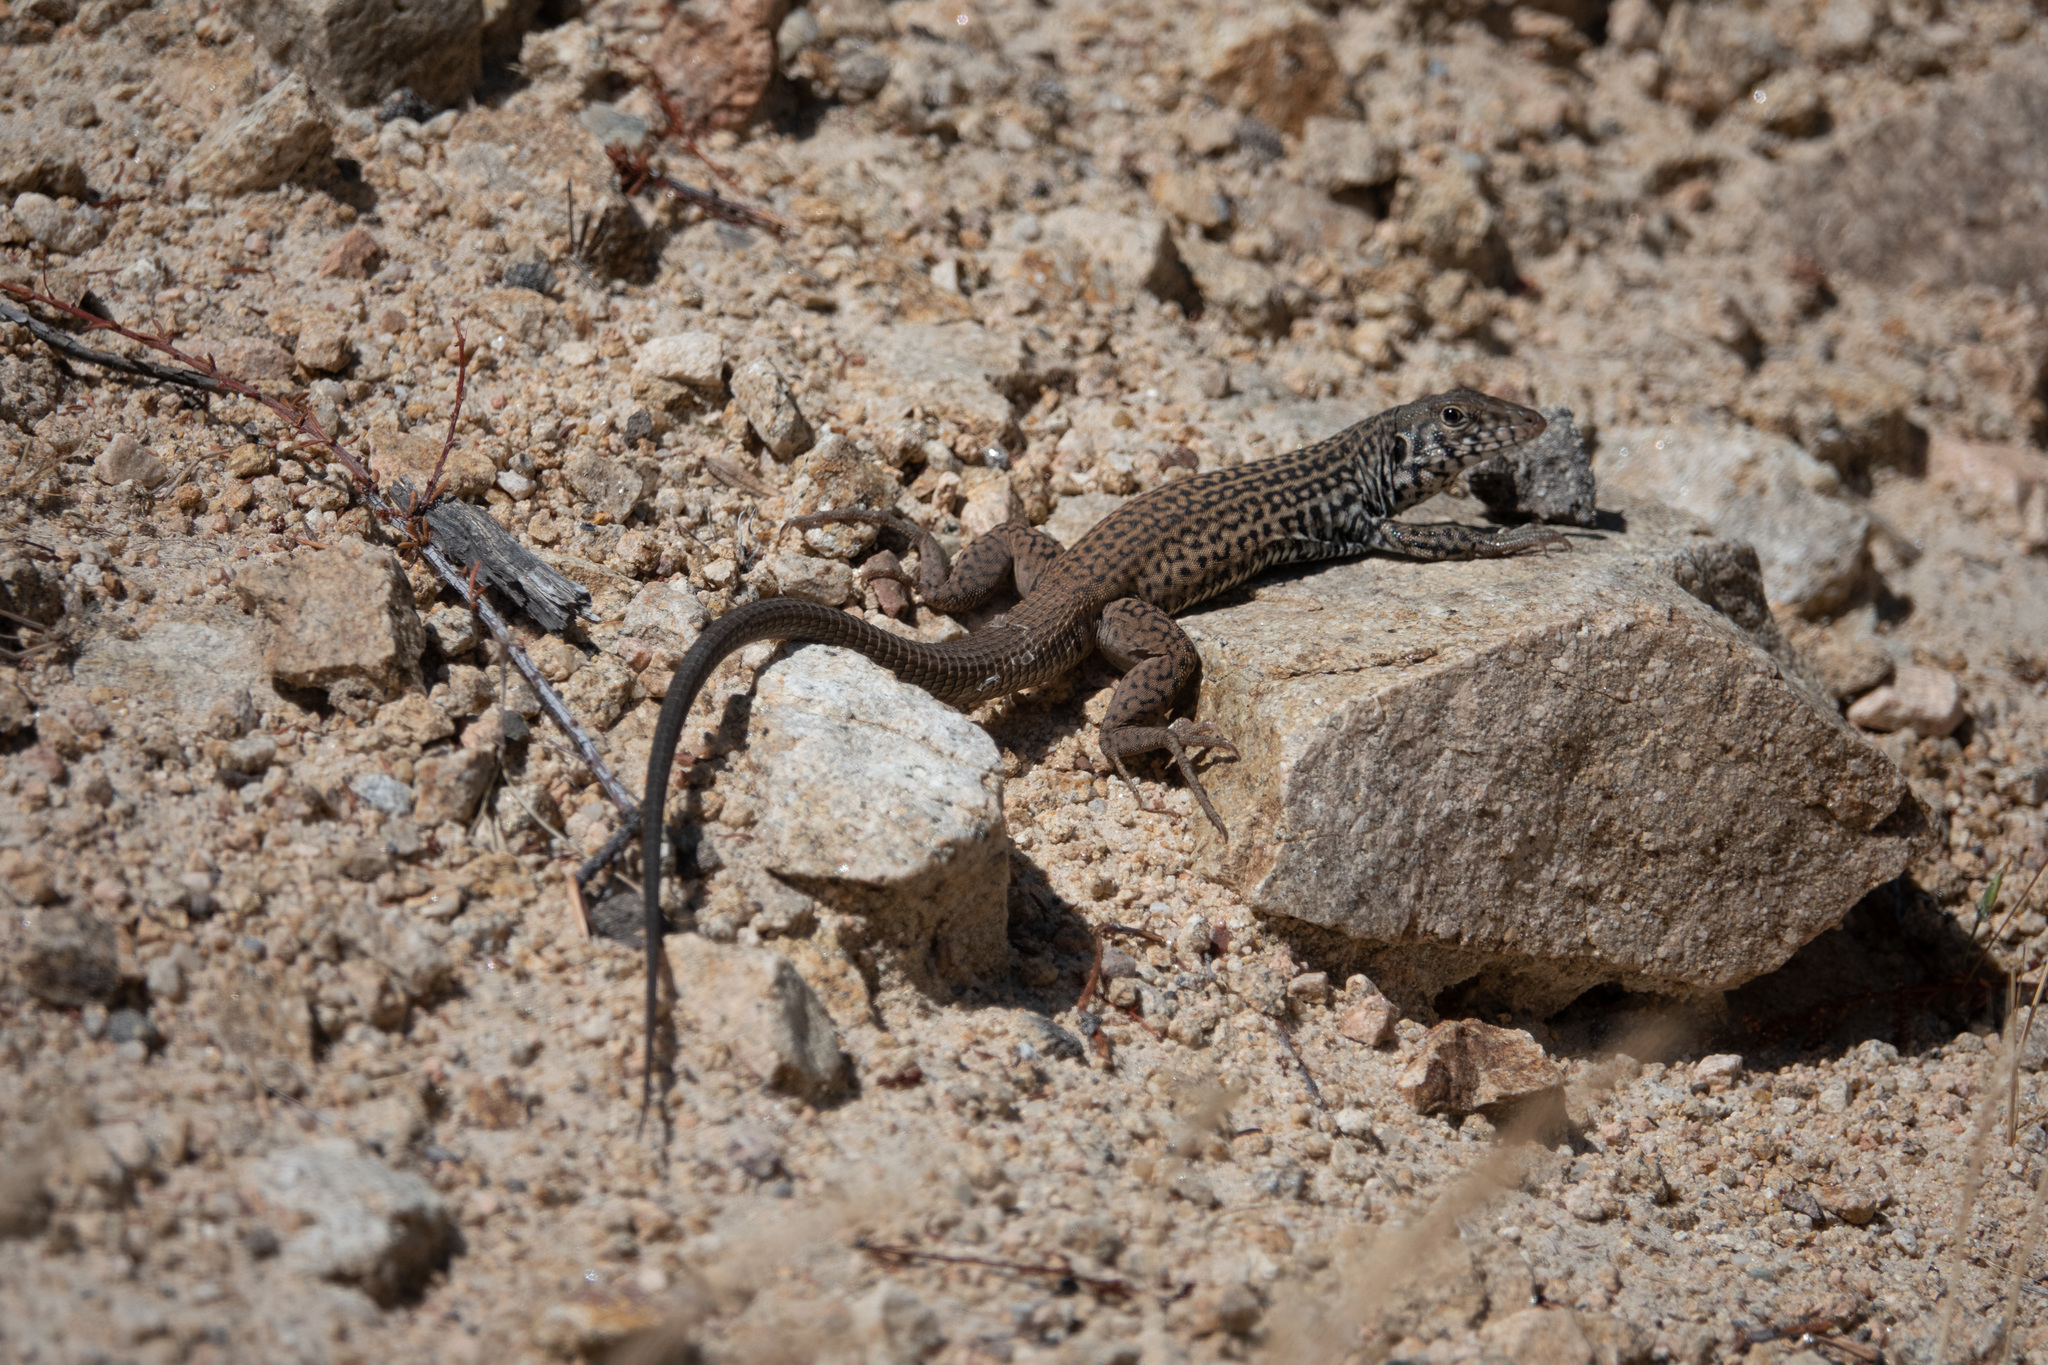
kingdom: Animalia
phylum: Chordata
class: Squamata
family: Teiidae
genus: Aspidoscelis
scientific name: Aspidoscelis tigris
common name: Tiger whiptail
